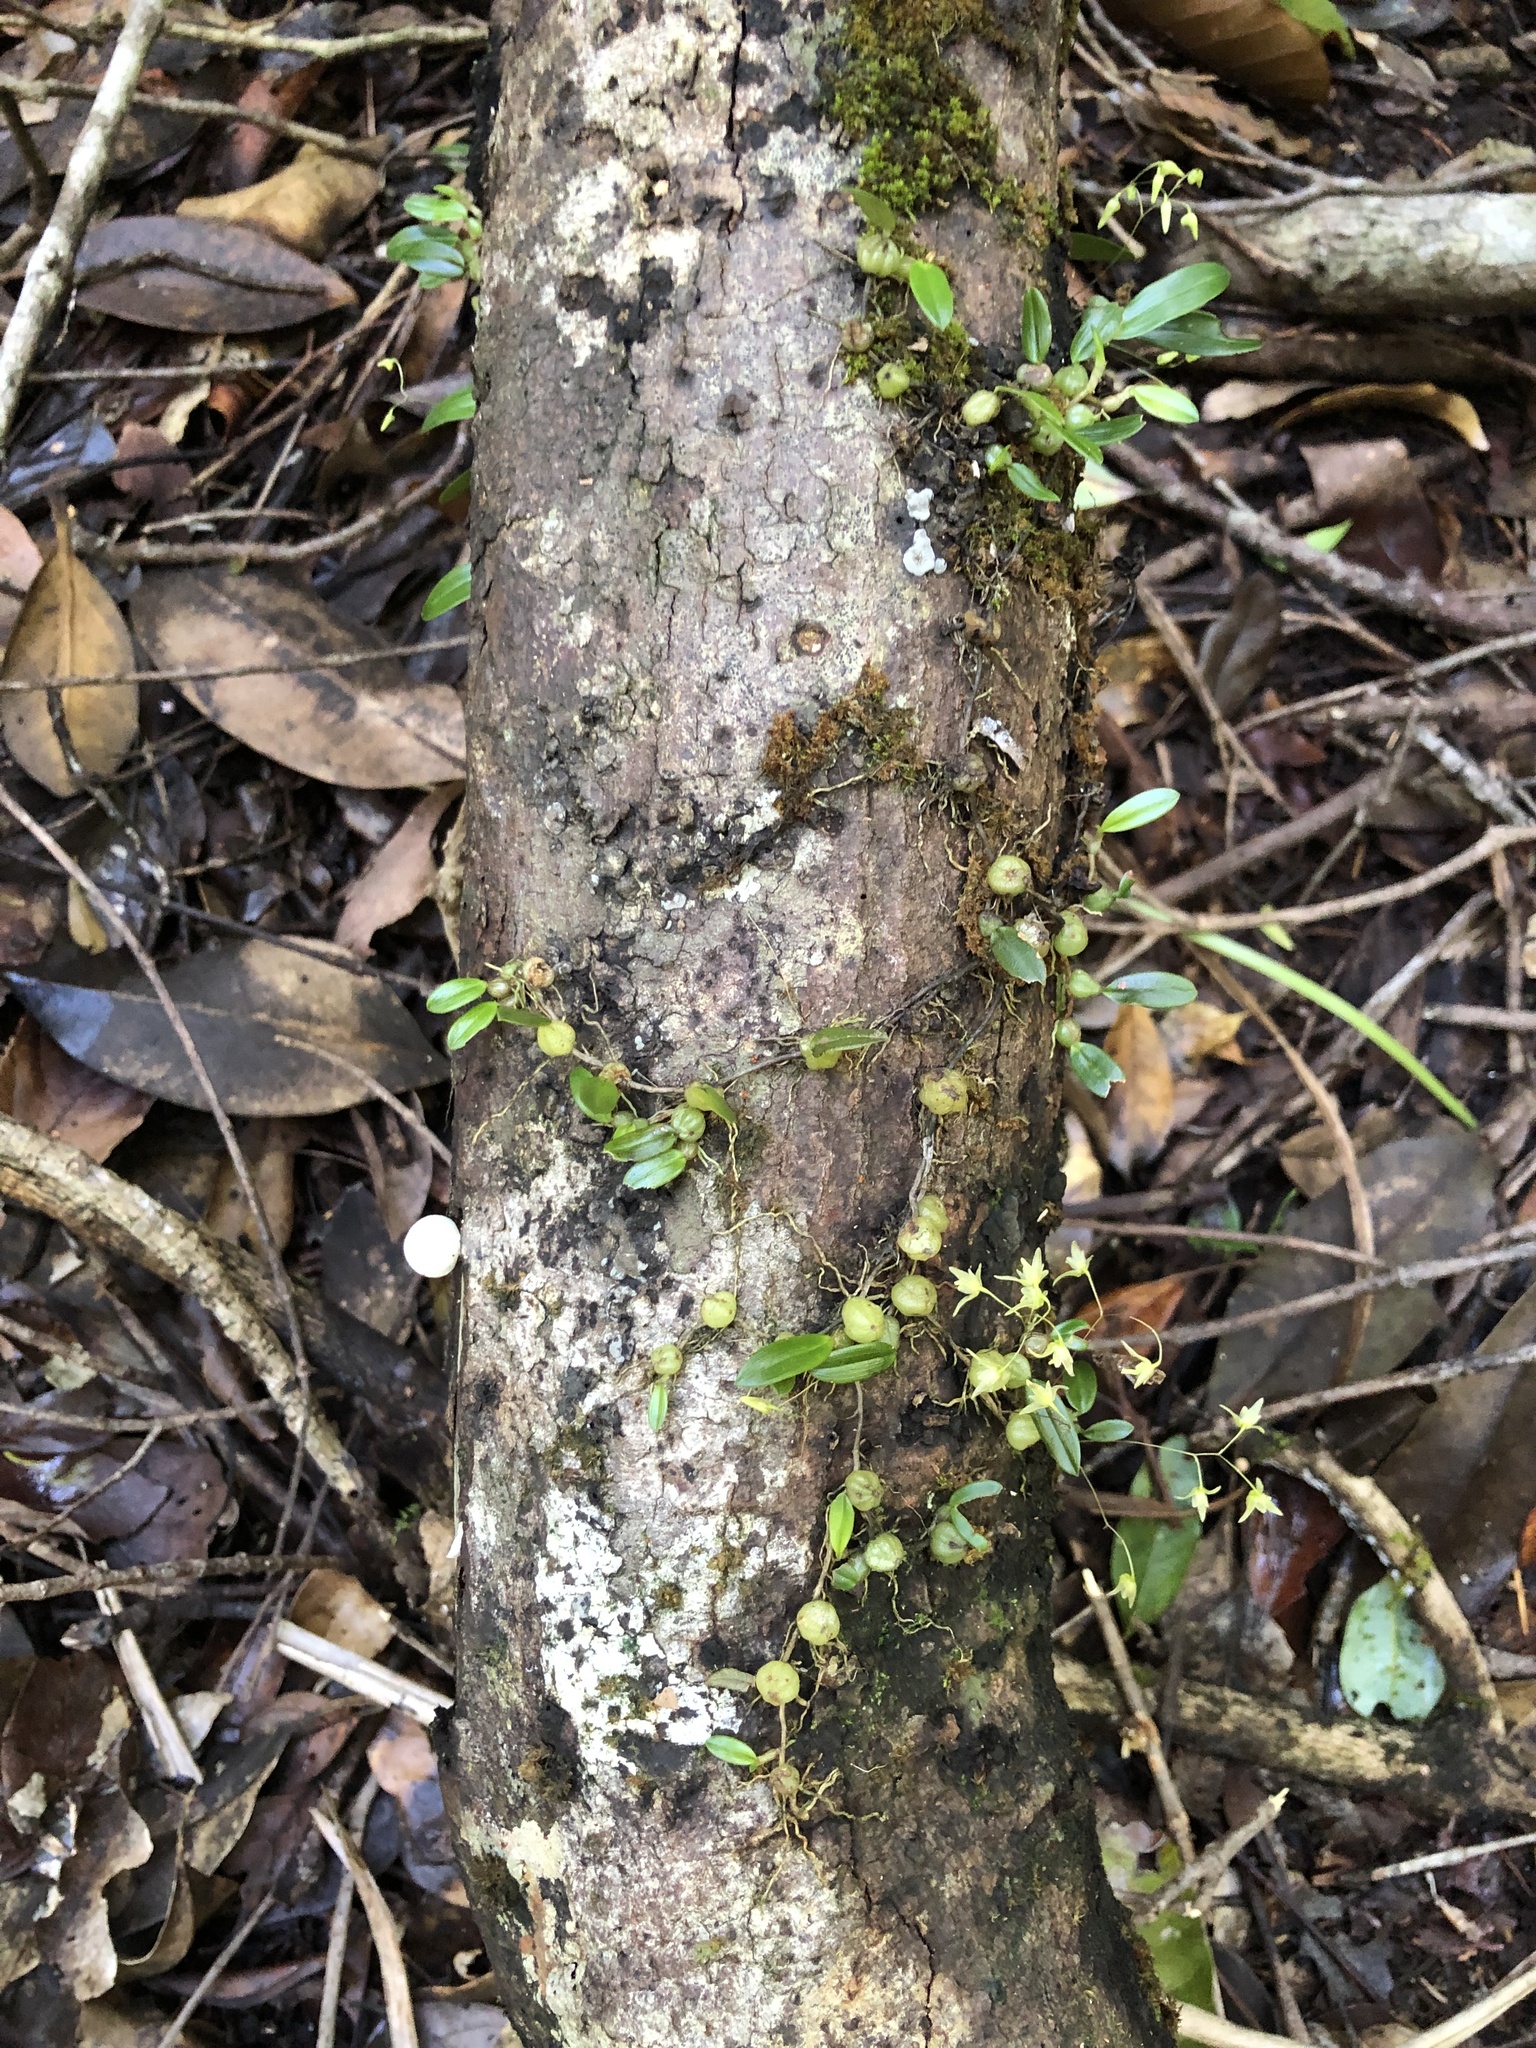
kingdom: Plantae
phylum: Tracheophyta
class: Liliopsida
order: Asparagales
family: Orchidaceae
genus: Bulbophyllum
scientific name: Bulbophyllum exiguum
